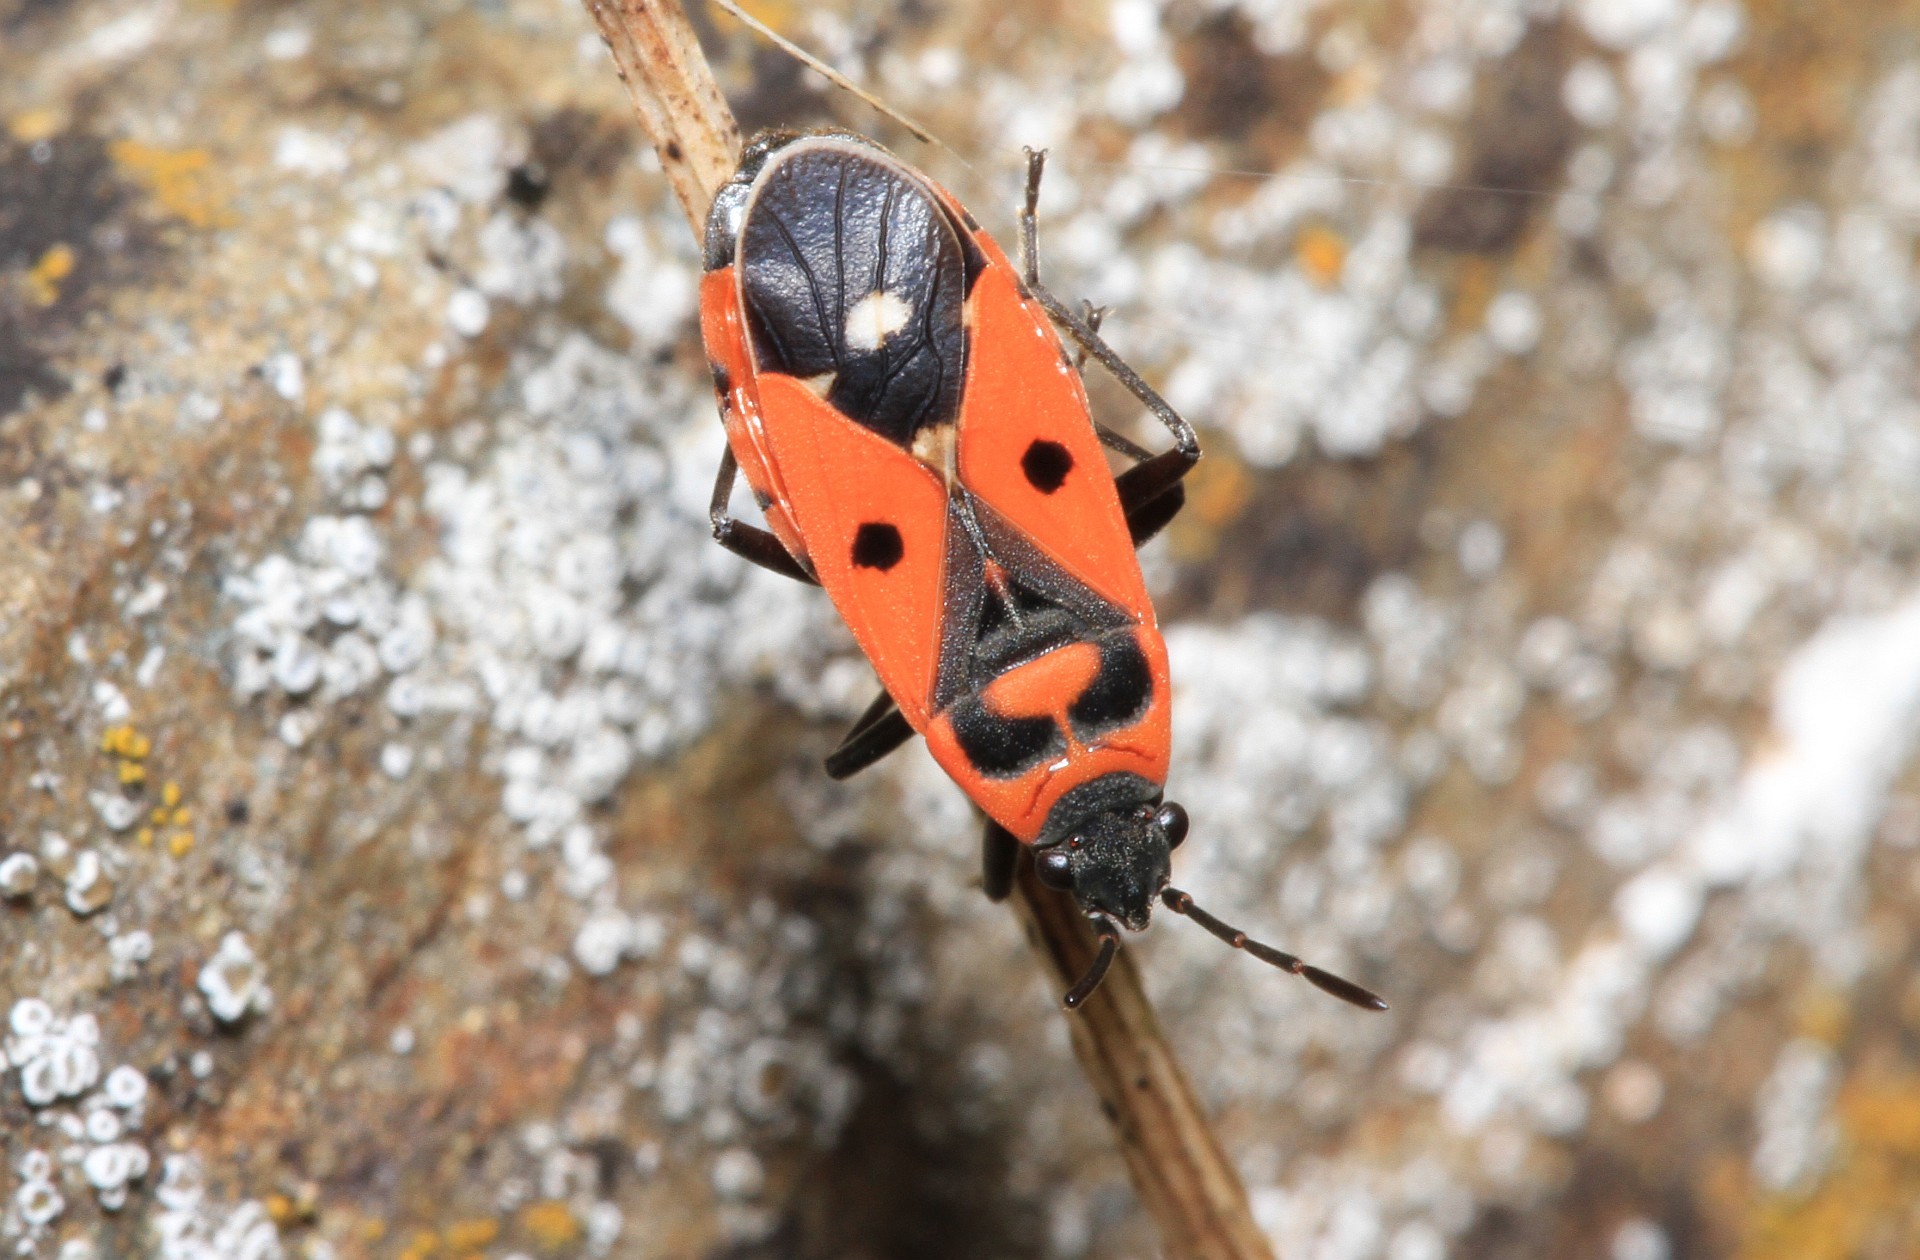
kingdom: Animalia
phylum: Arthropoda
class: Insecta
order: Hemiptera
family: Lygaeidae
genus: Melanocoryphus
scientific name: Melanocoryphus albomaculatus
